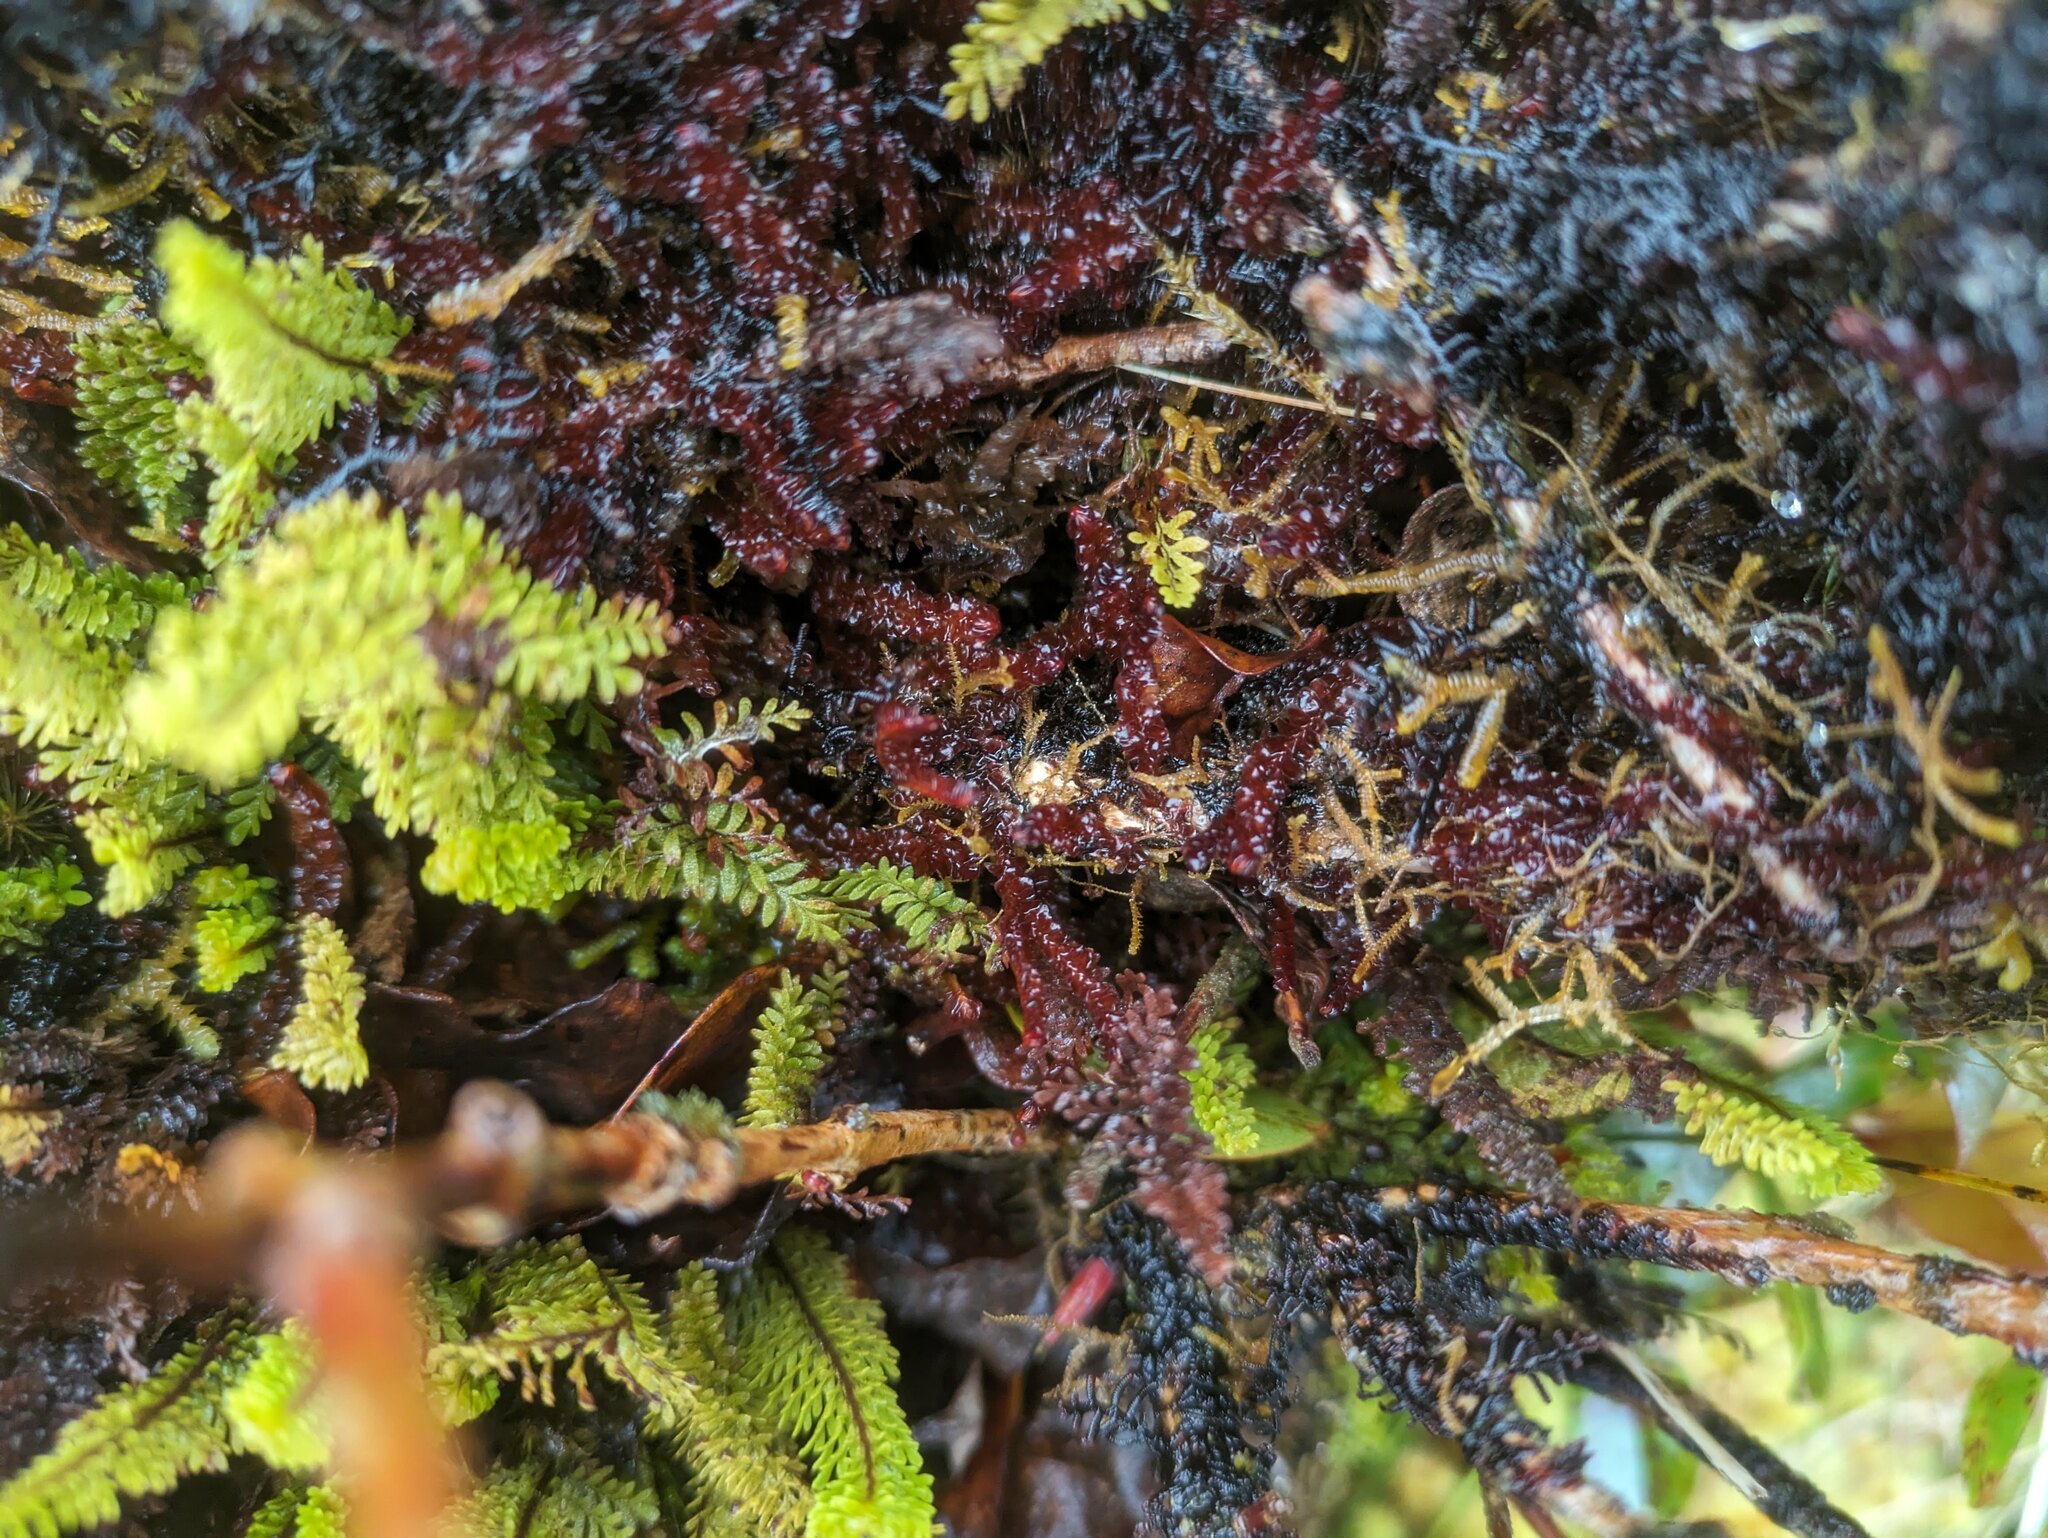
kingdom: Plantae
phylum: Marchantiophyta
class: Jungermanniopsida
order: Jungermanniales
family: Adelanthaceae
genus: Cuspidatula
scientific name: Cuspidatula robusta
